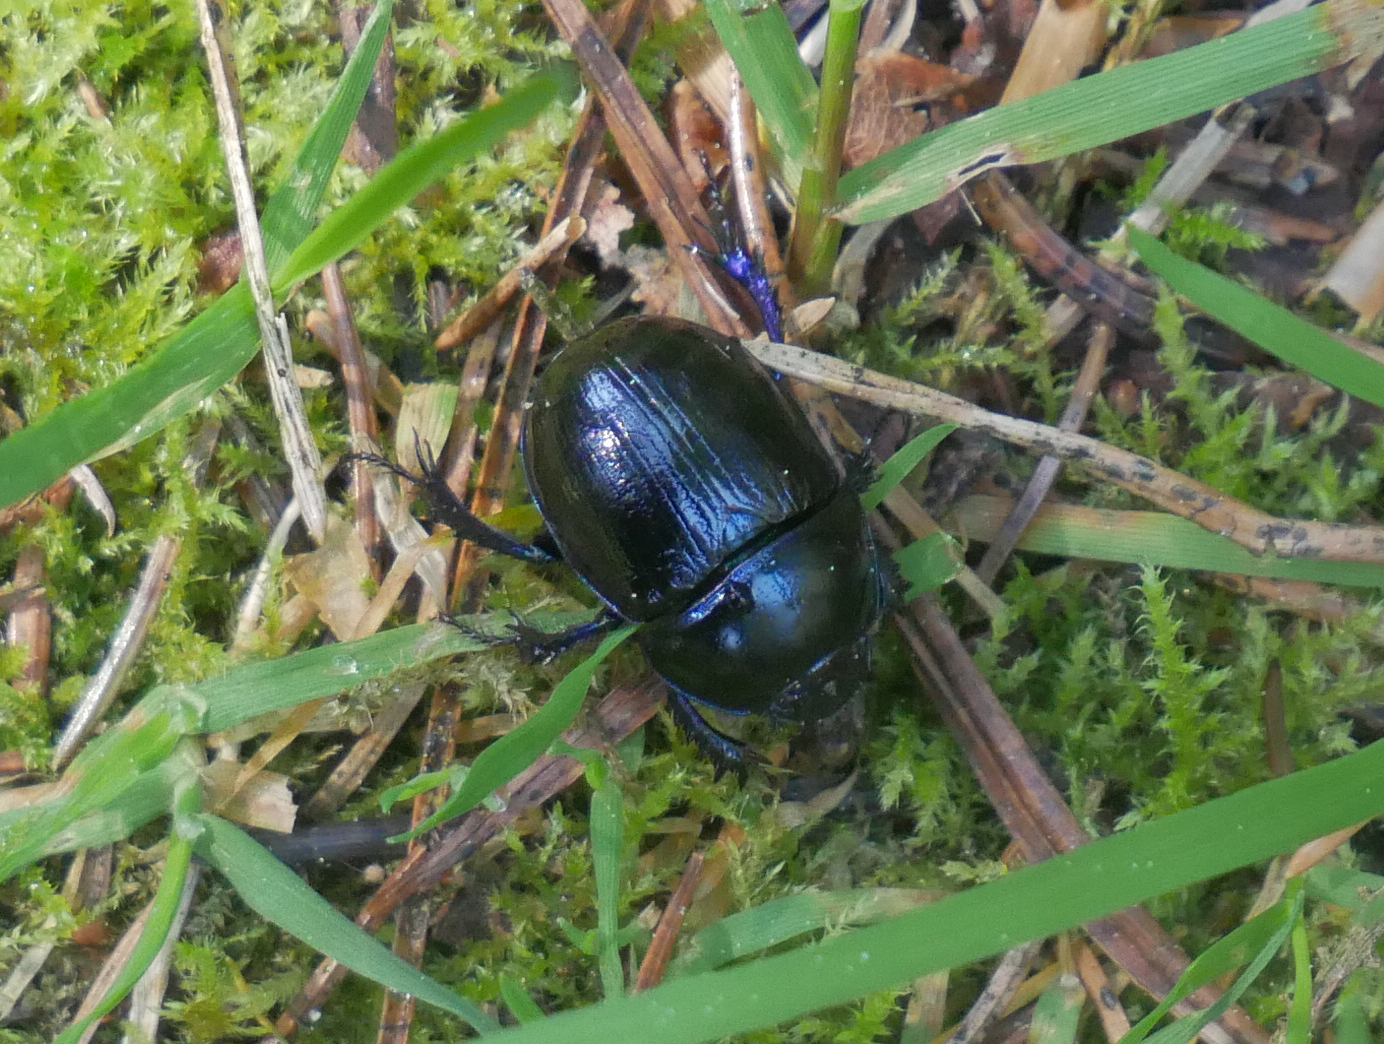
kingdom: Animalia
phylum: Arthropoda
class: Insecta
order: Coleoptera
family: Geotrupidae
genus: Anoplotrupes
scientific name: Anoplotrupes stercorosus
